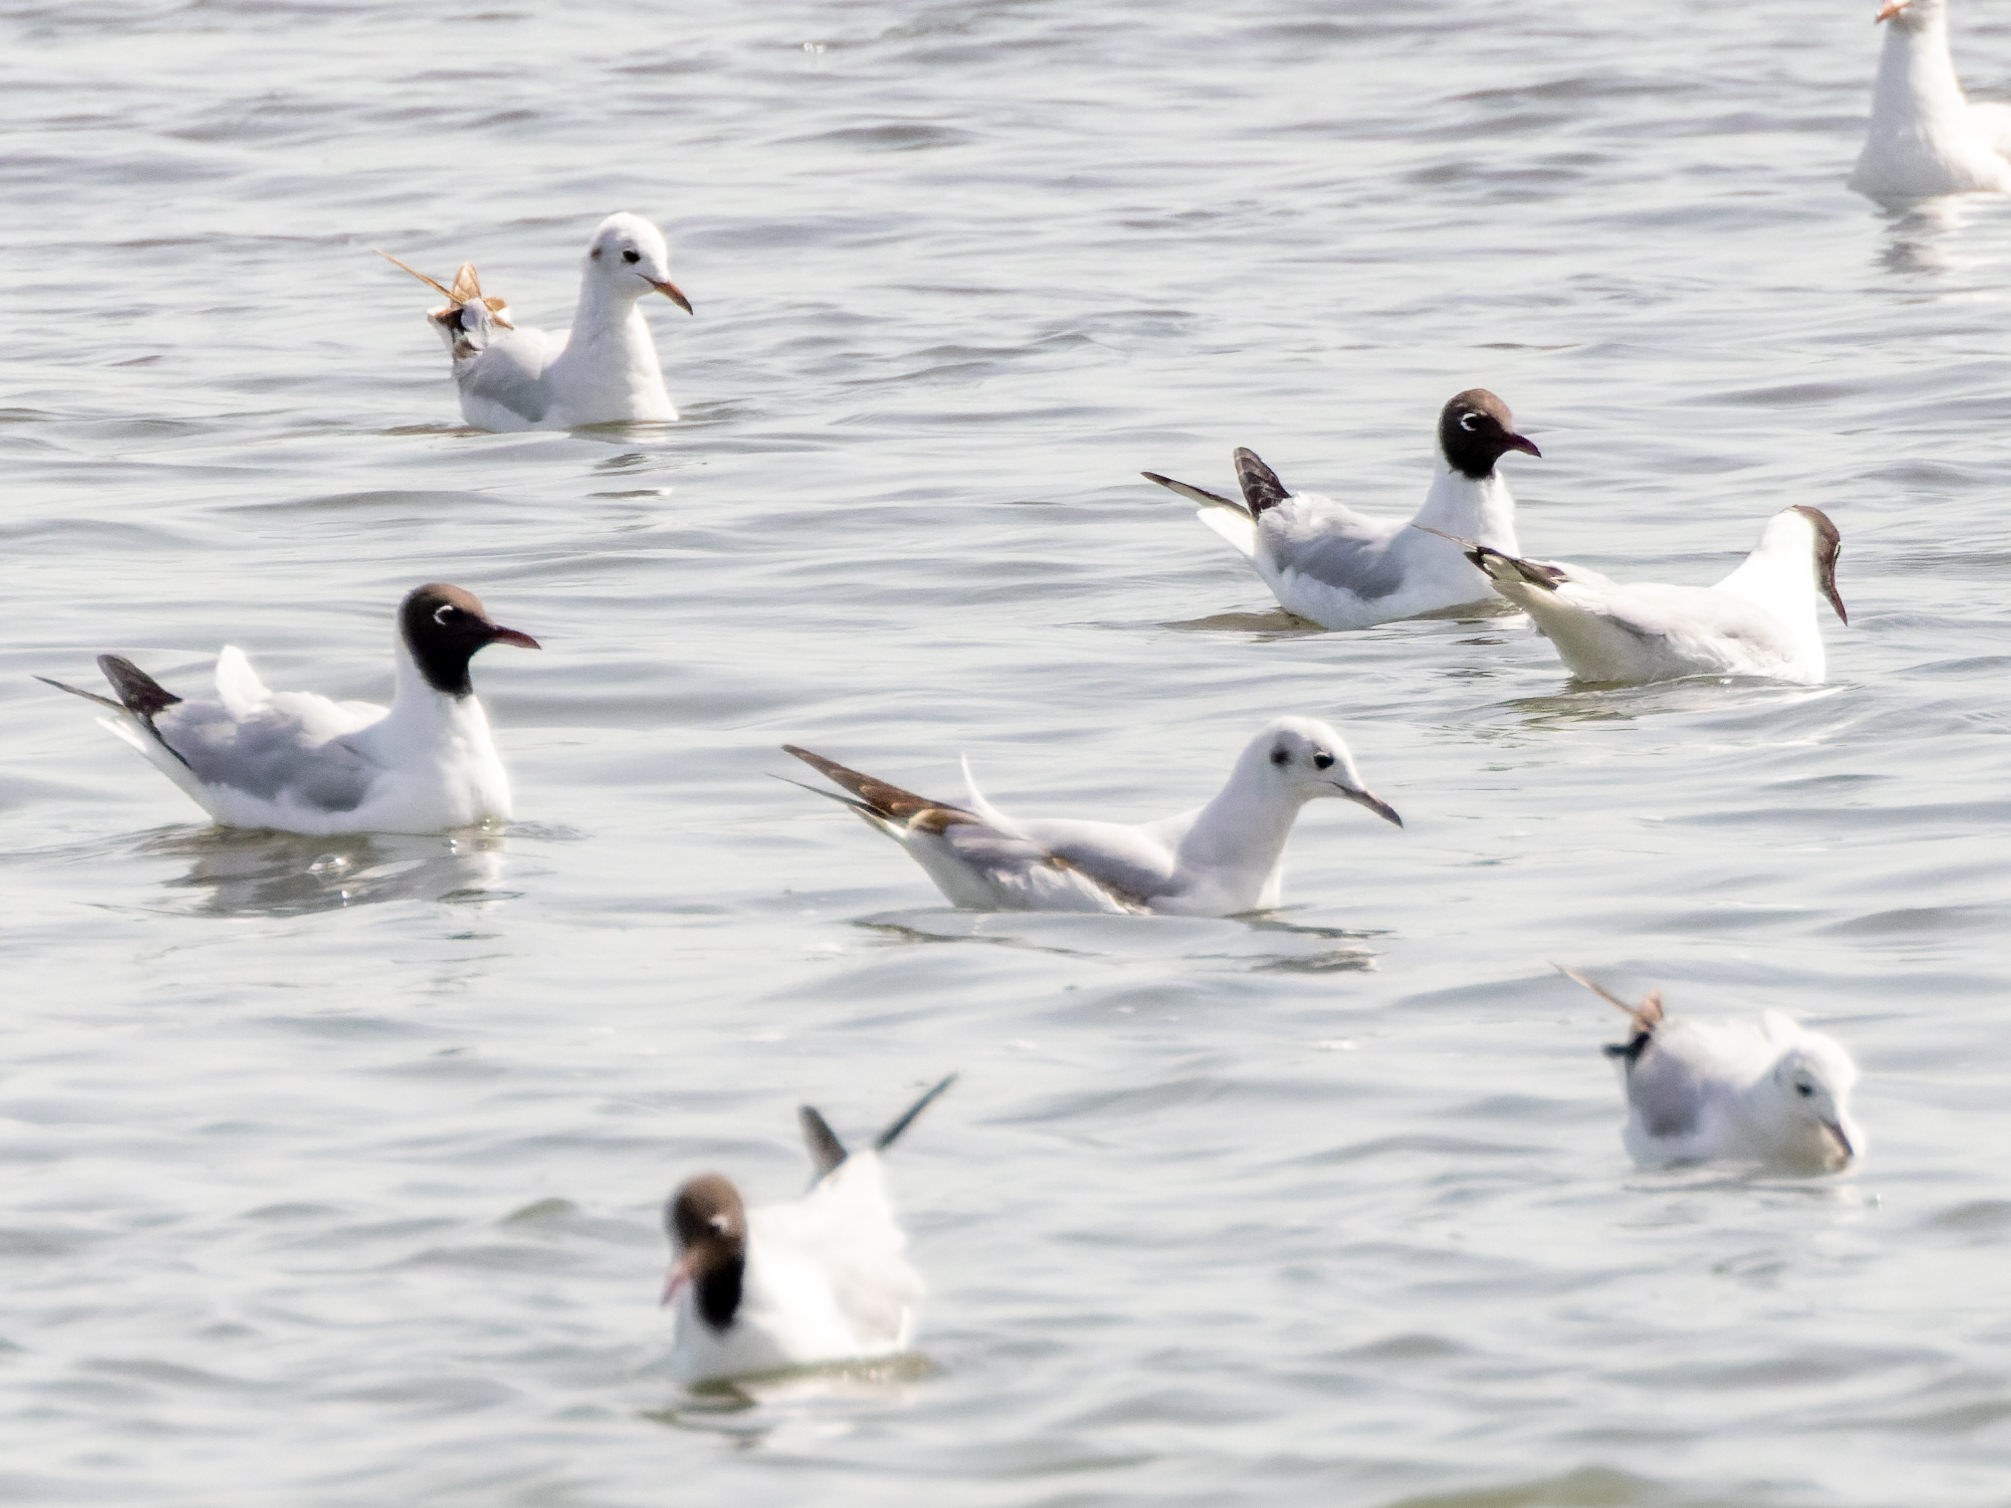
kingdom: Animalia
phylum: Chordata
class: Aves
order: Charadriiformes
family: Laridae
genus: Chroicocephalus
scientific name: Chroicocephalus ridibundus
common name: Black-headed gull
